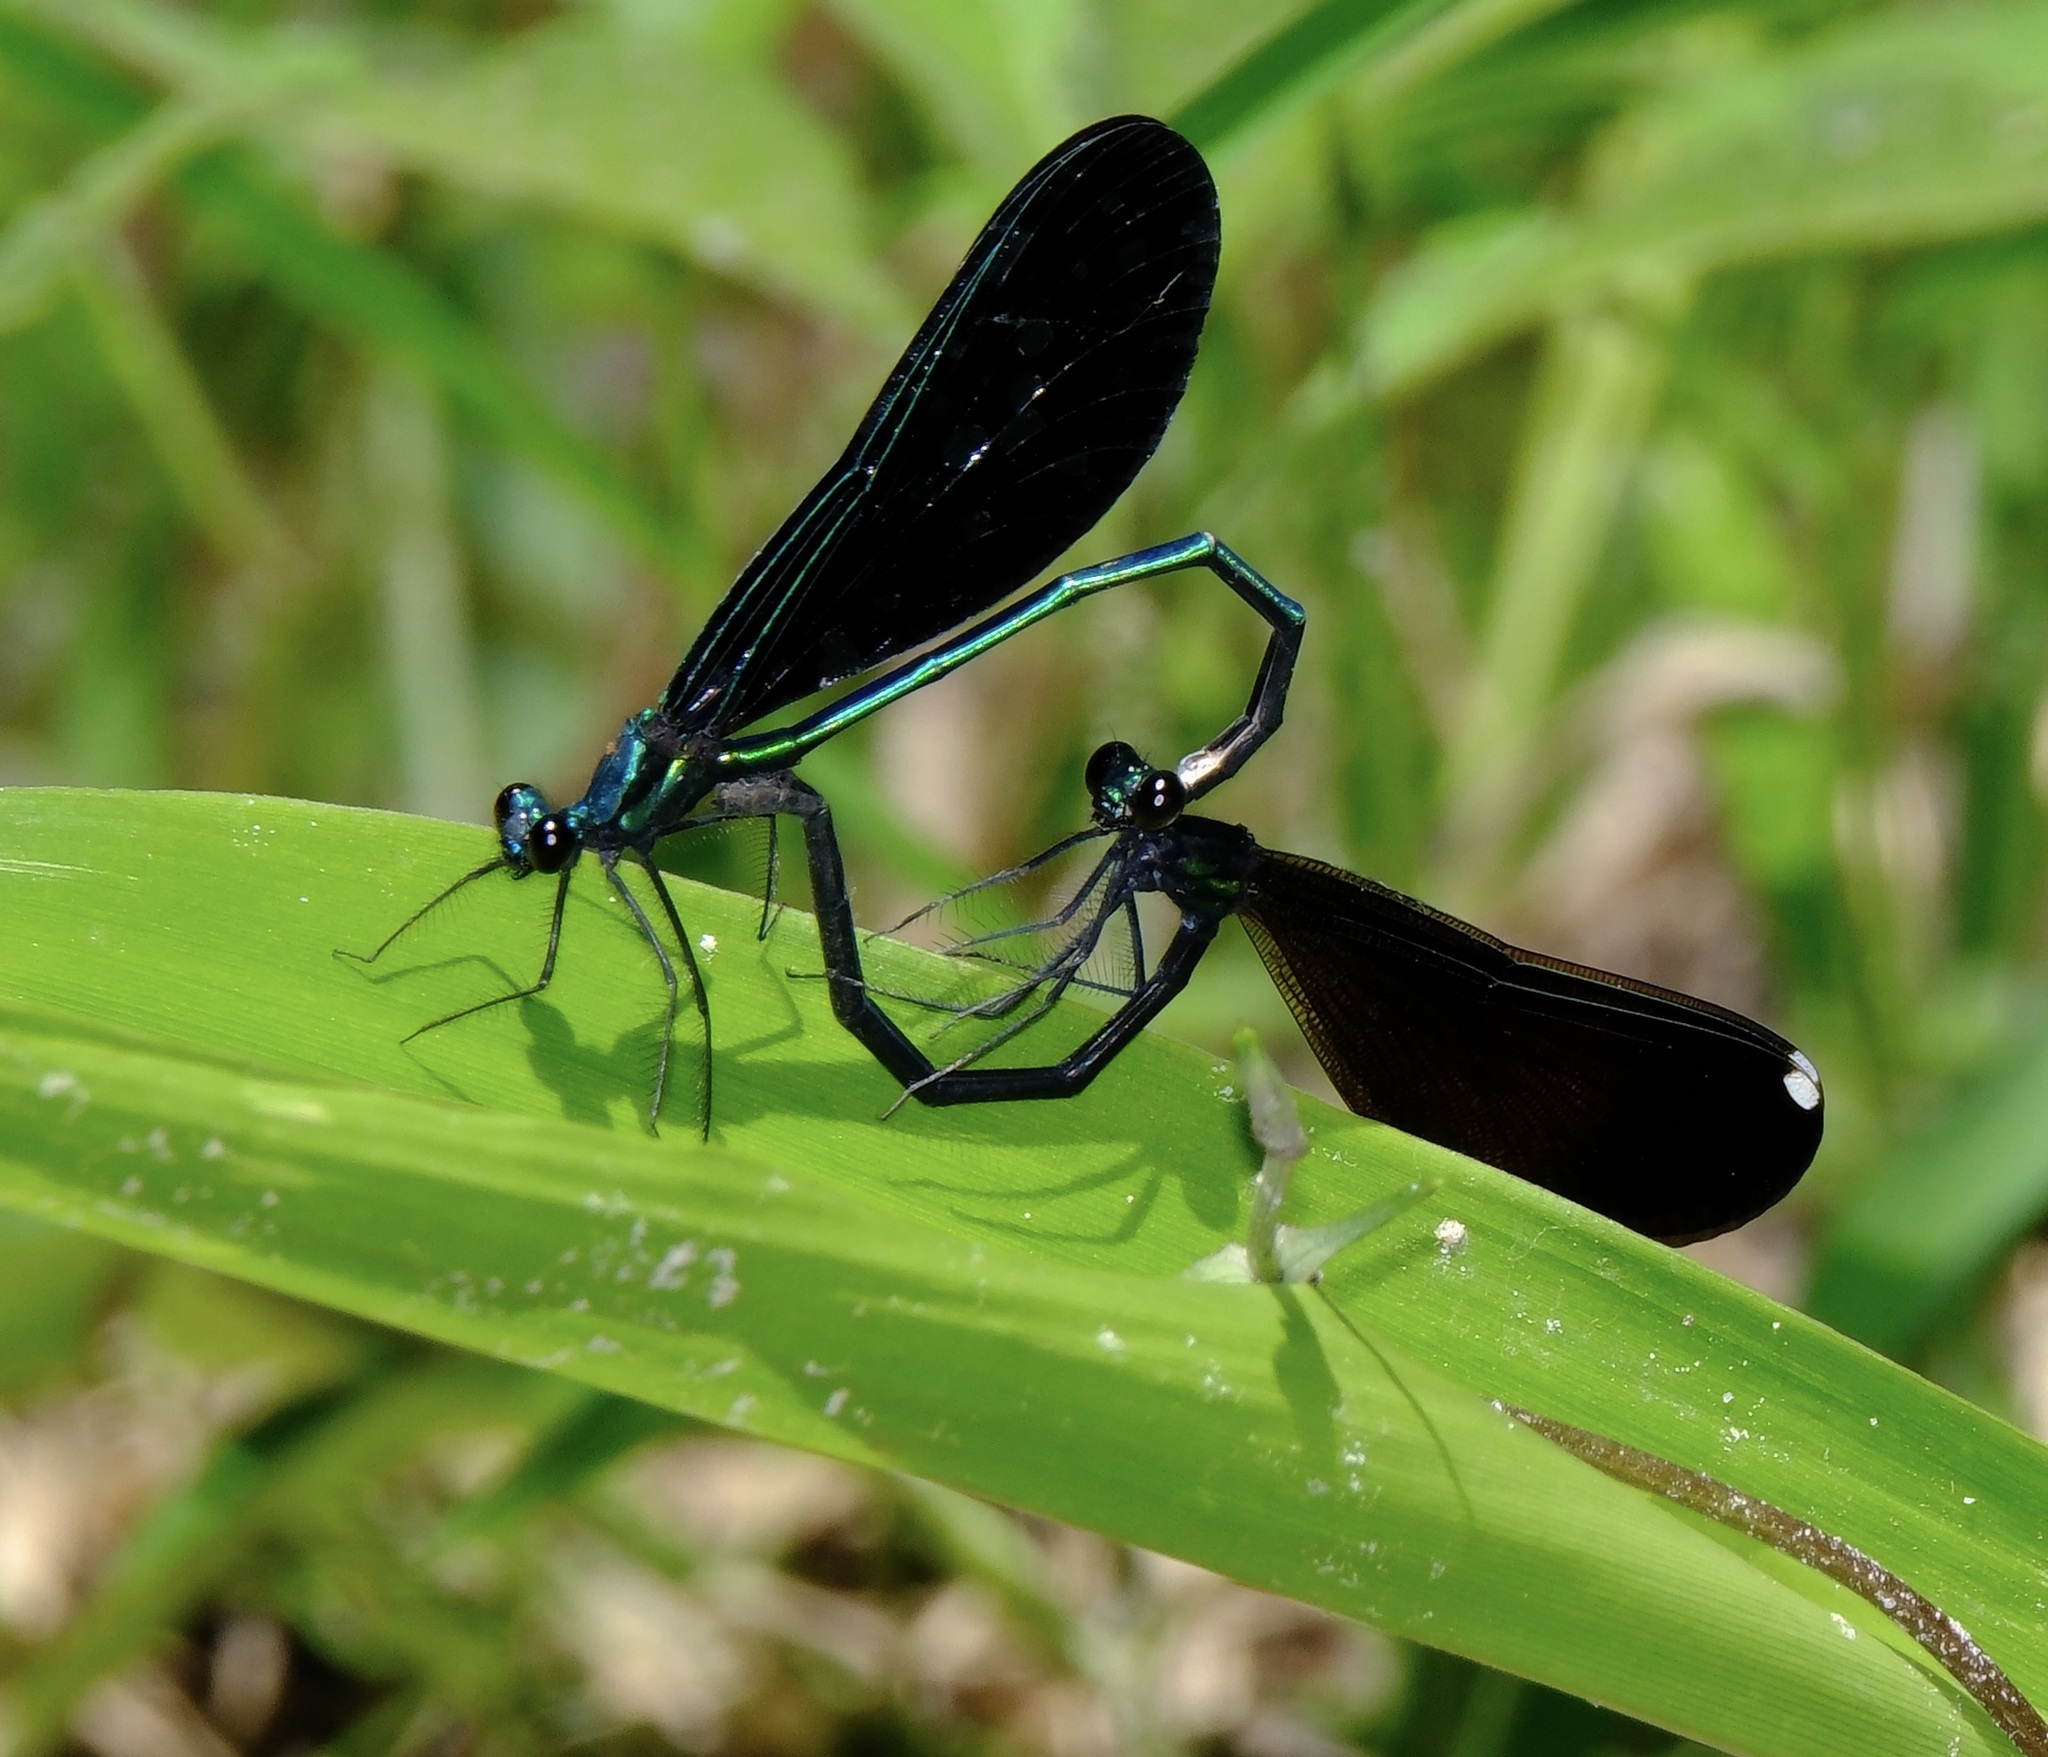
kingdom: Animalia
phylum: Arthropoda
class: Insecta
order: Odonata
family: Calopterygidae
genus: Calopteryx
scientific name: Calopteryx maculata
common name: Ebony jewelwing
